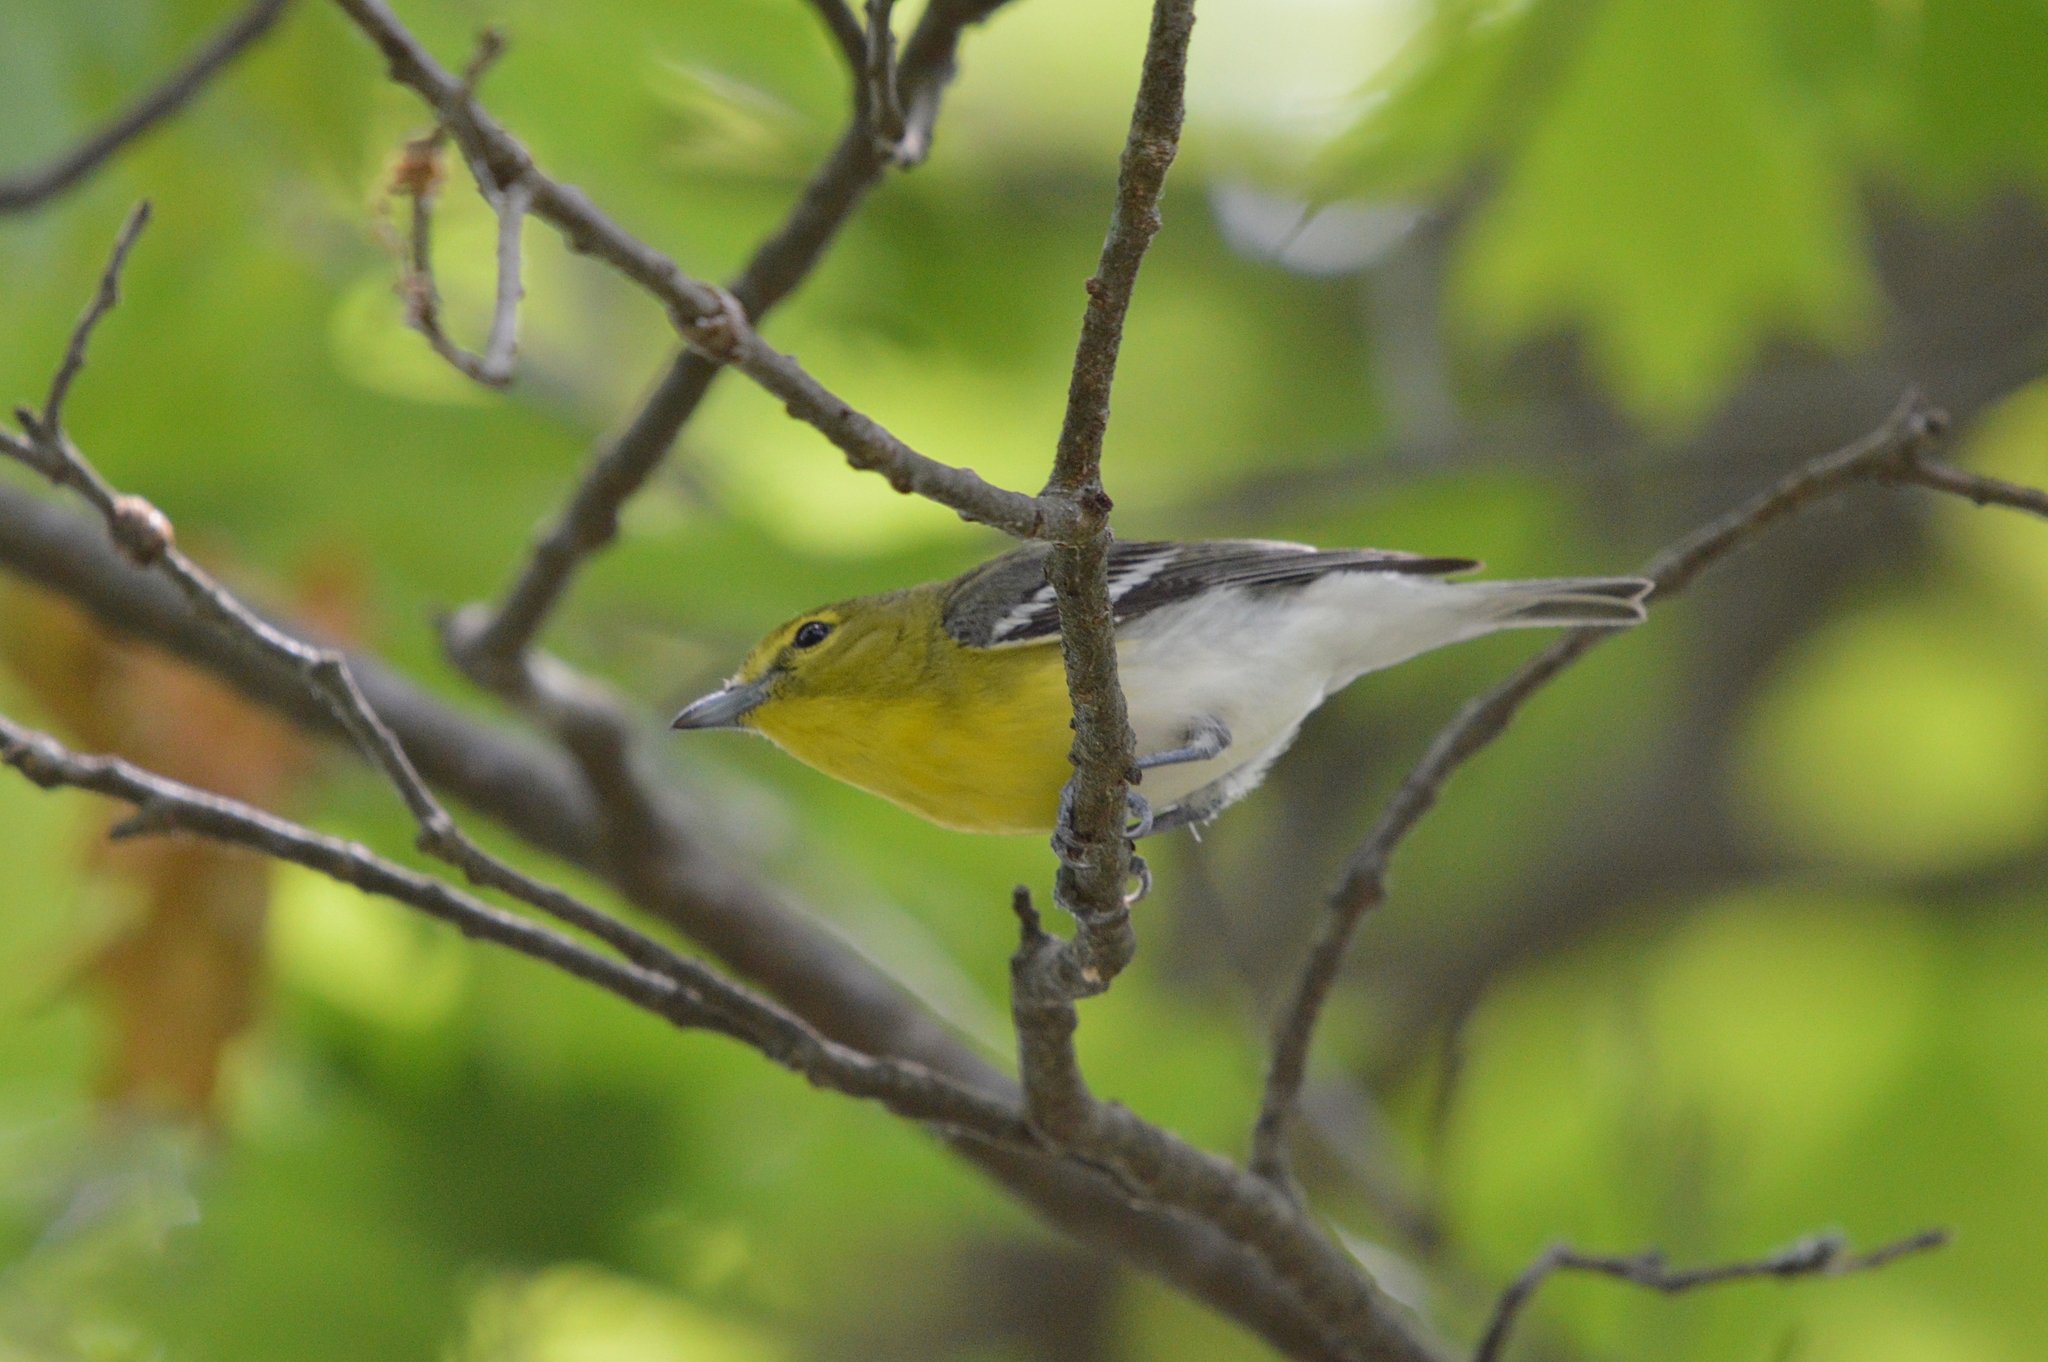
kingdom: Animalia
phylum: Chordata
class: Aves
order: Passeriformes
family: Vireonidae
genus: Vireo
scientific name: Vireo flavifrons
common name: Yellow-throated vireo
